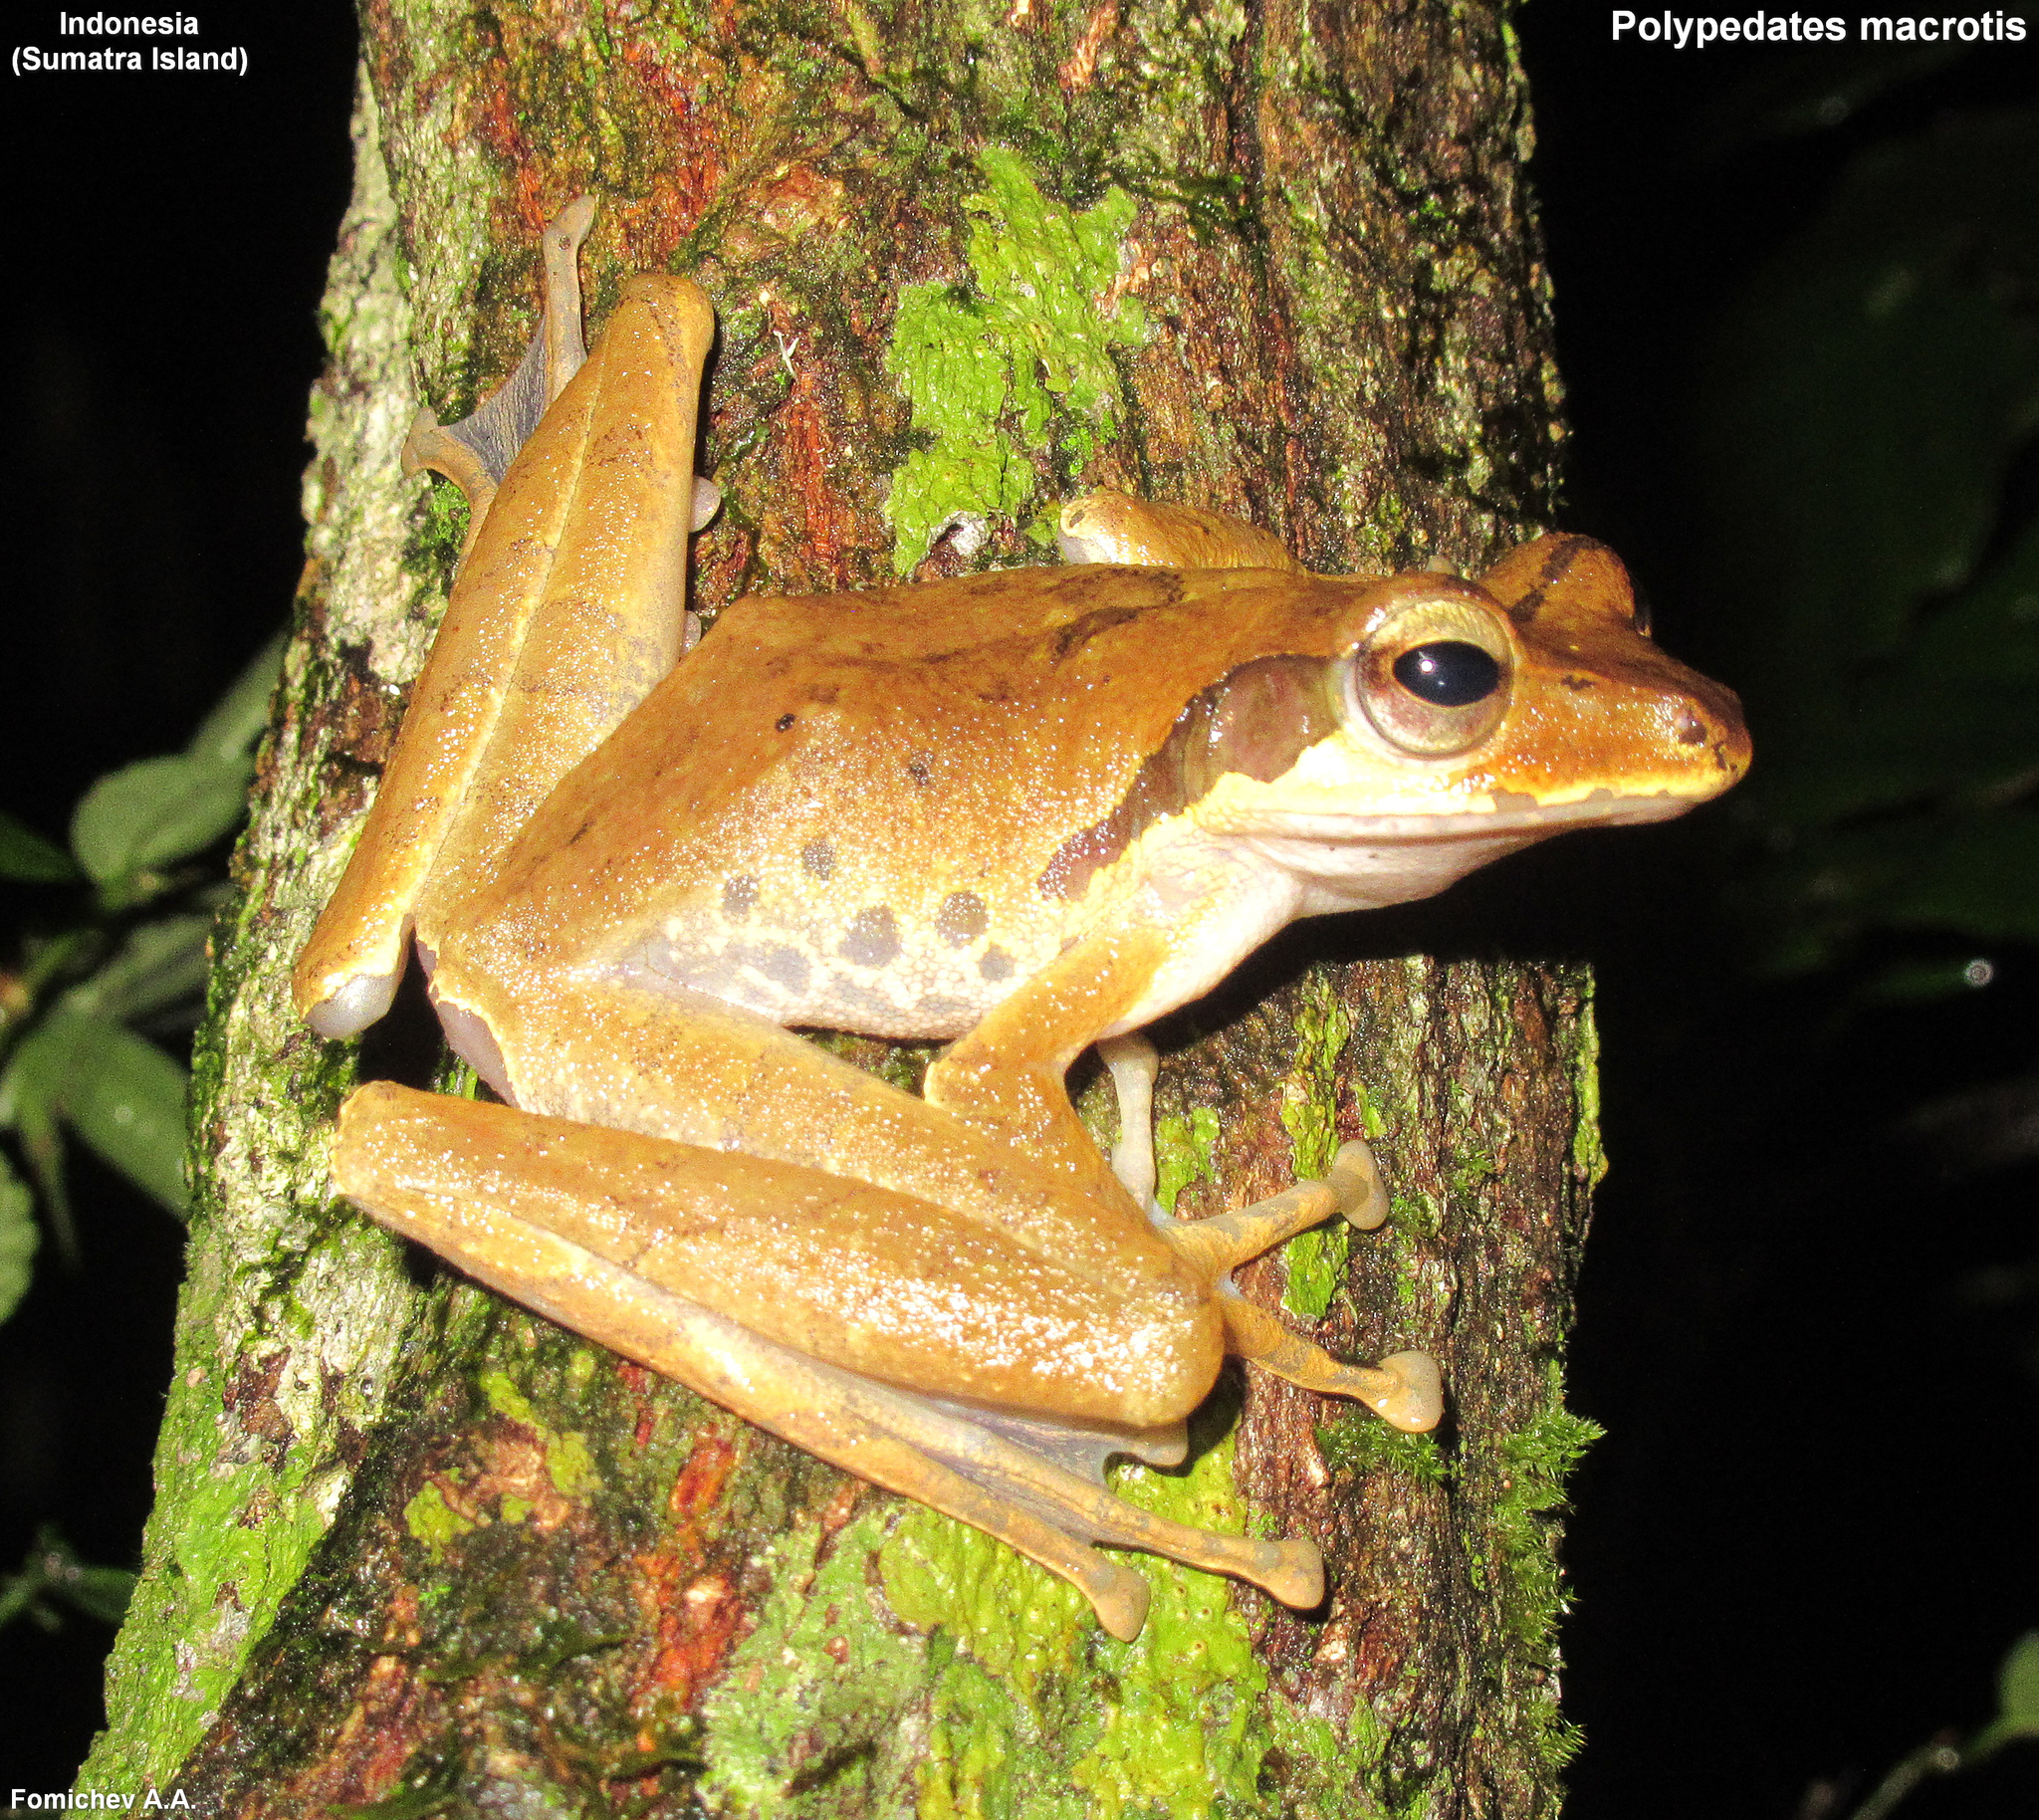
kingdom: Animalia
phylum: Chordata
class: Amphibia
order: Anura
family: Rhacophoridae
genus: Polypedates
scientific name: Polypedates macrotis
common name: Dark-eared tree frog
